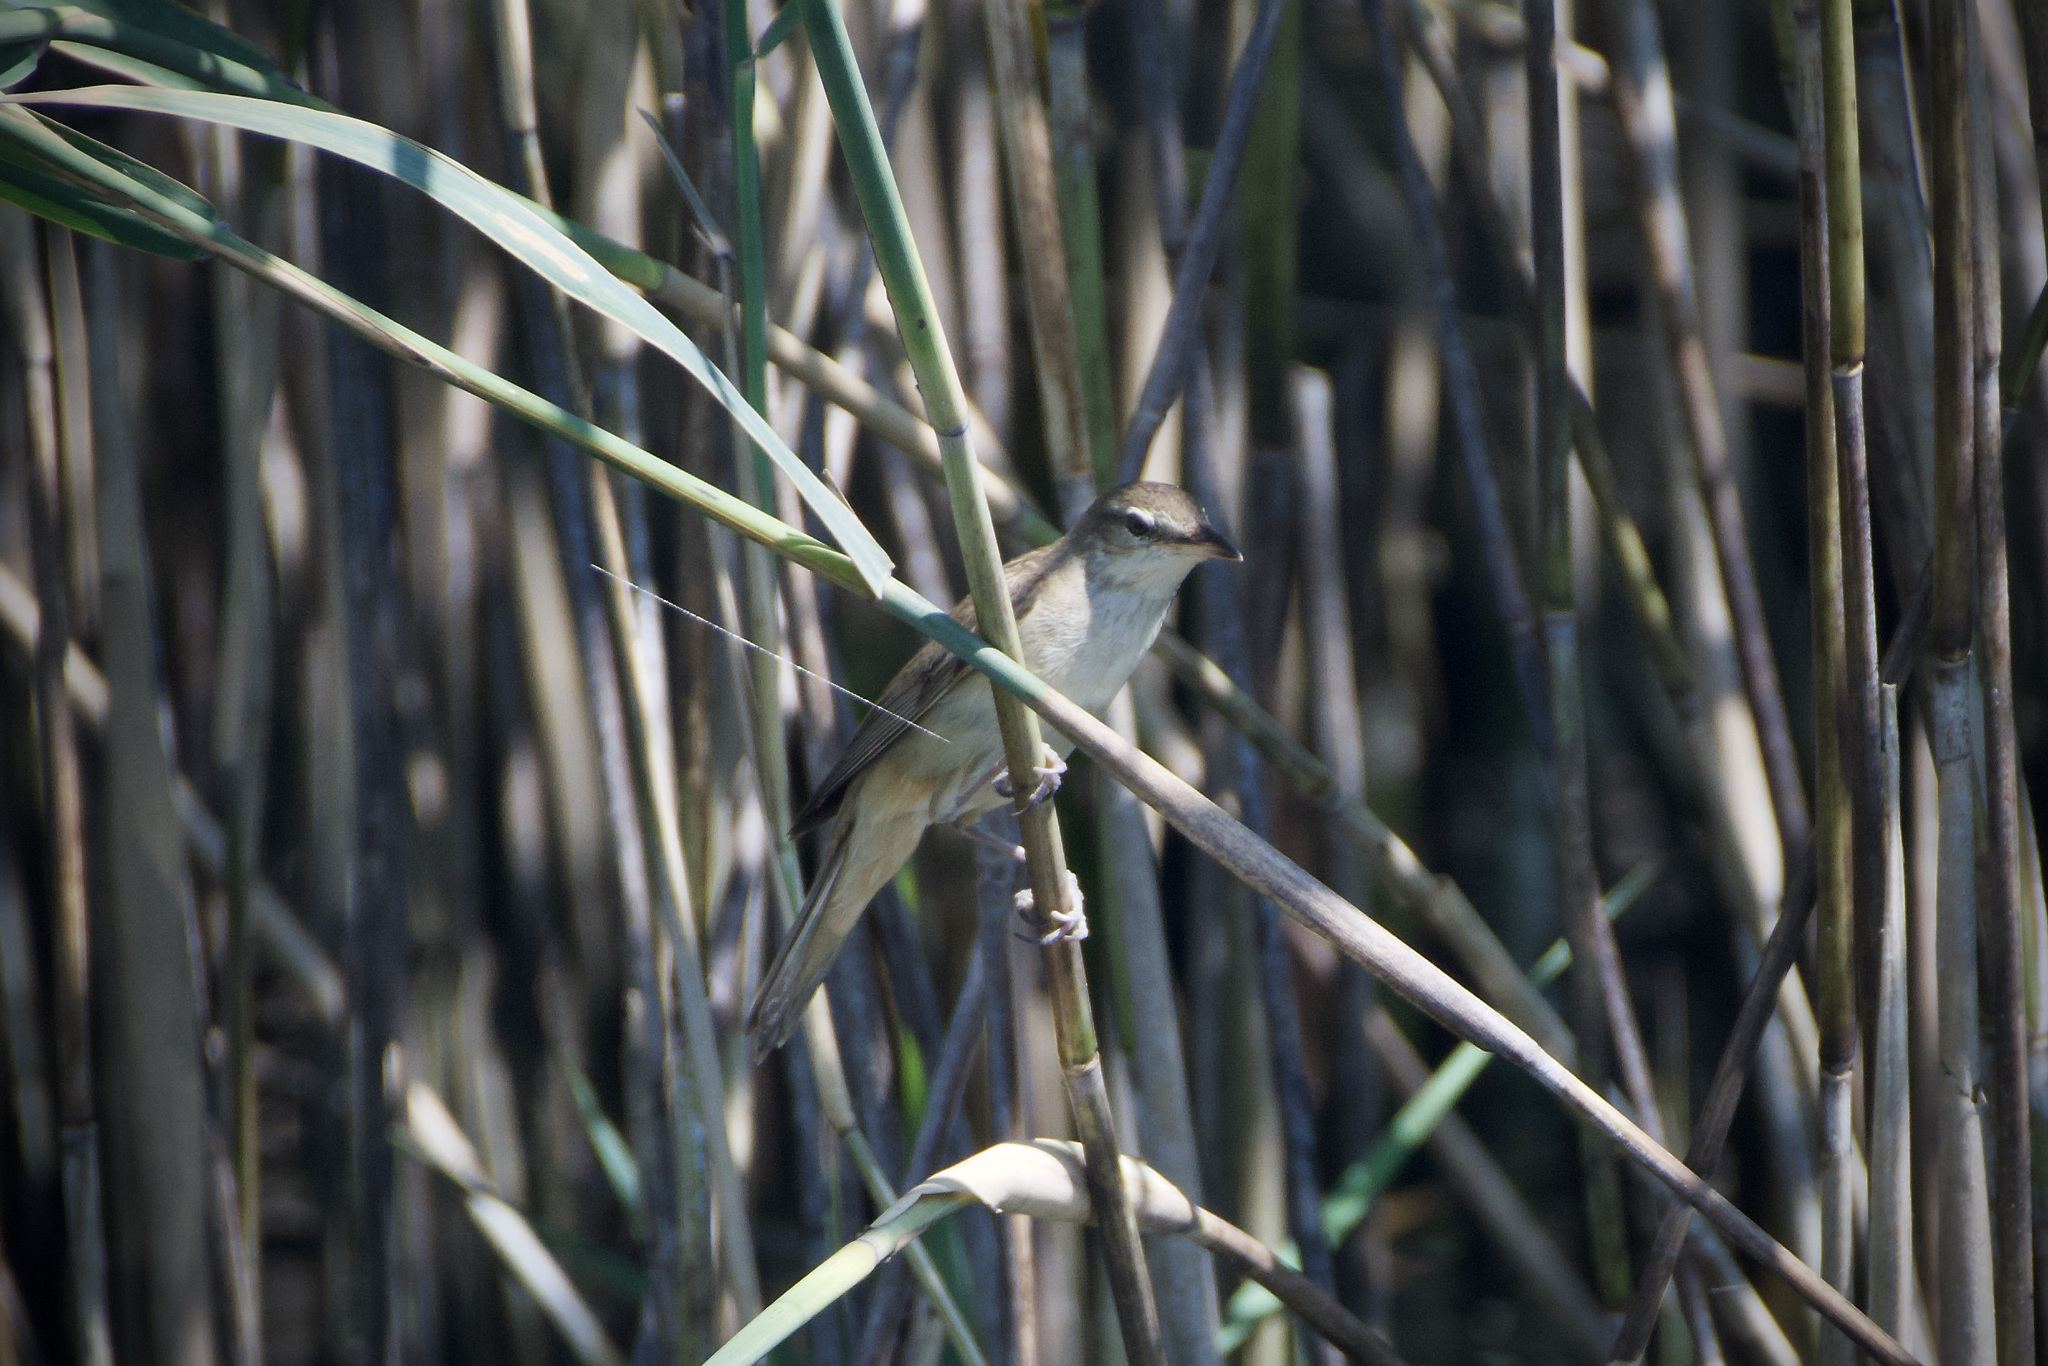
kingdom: Animalia
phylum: Chordata
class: Aves
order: Passeriformes
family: Acrocephalidae
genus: Acrocephalus
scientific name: Acrocephalus arundinaceus
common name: Great reed warbler
